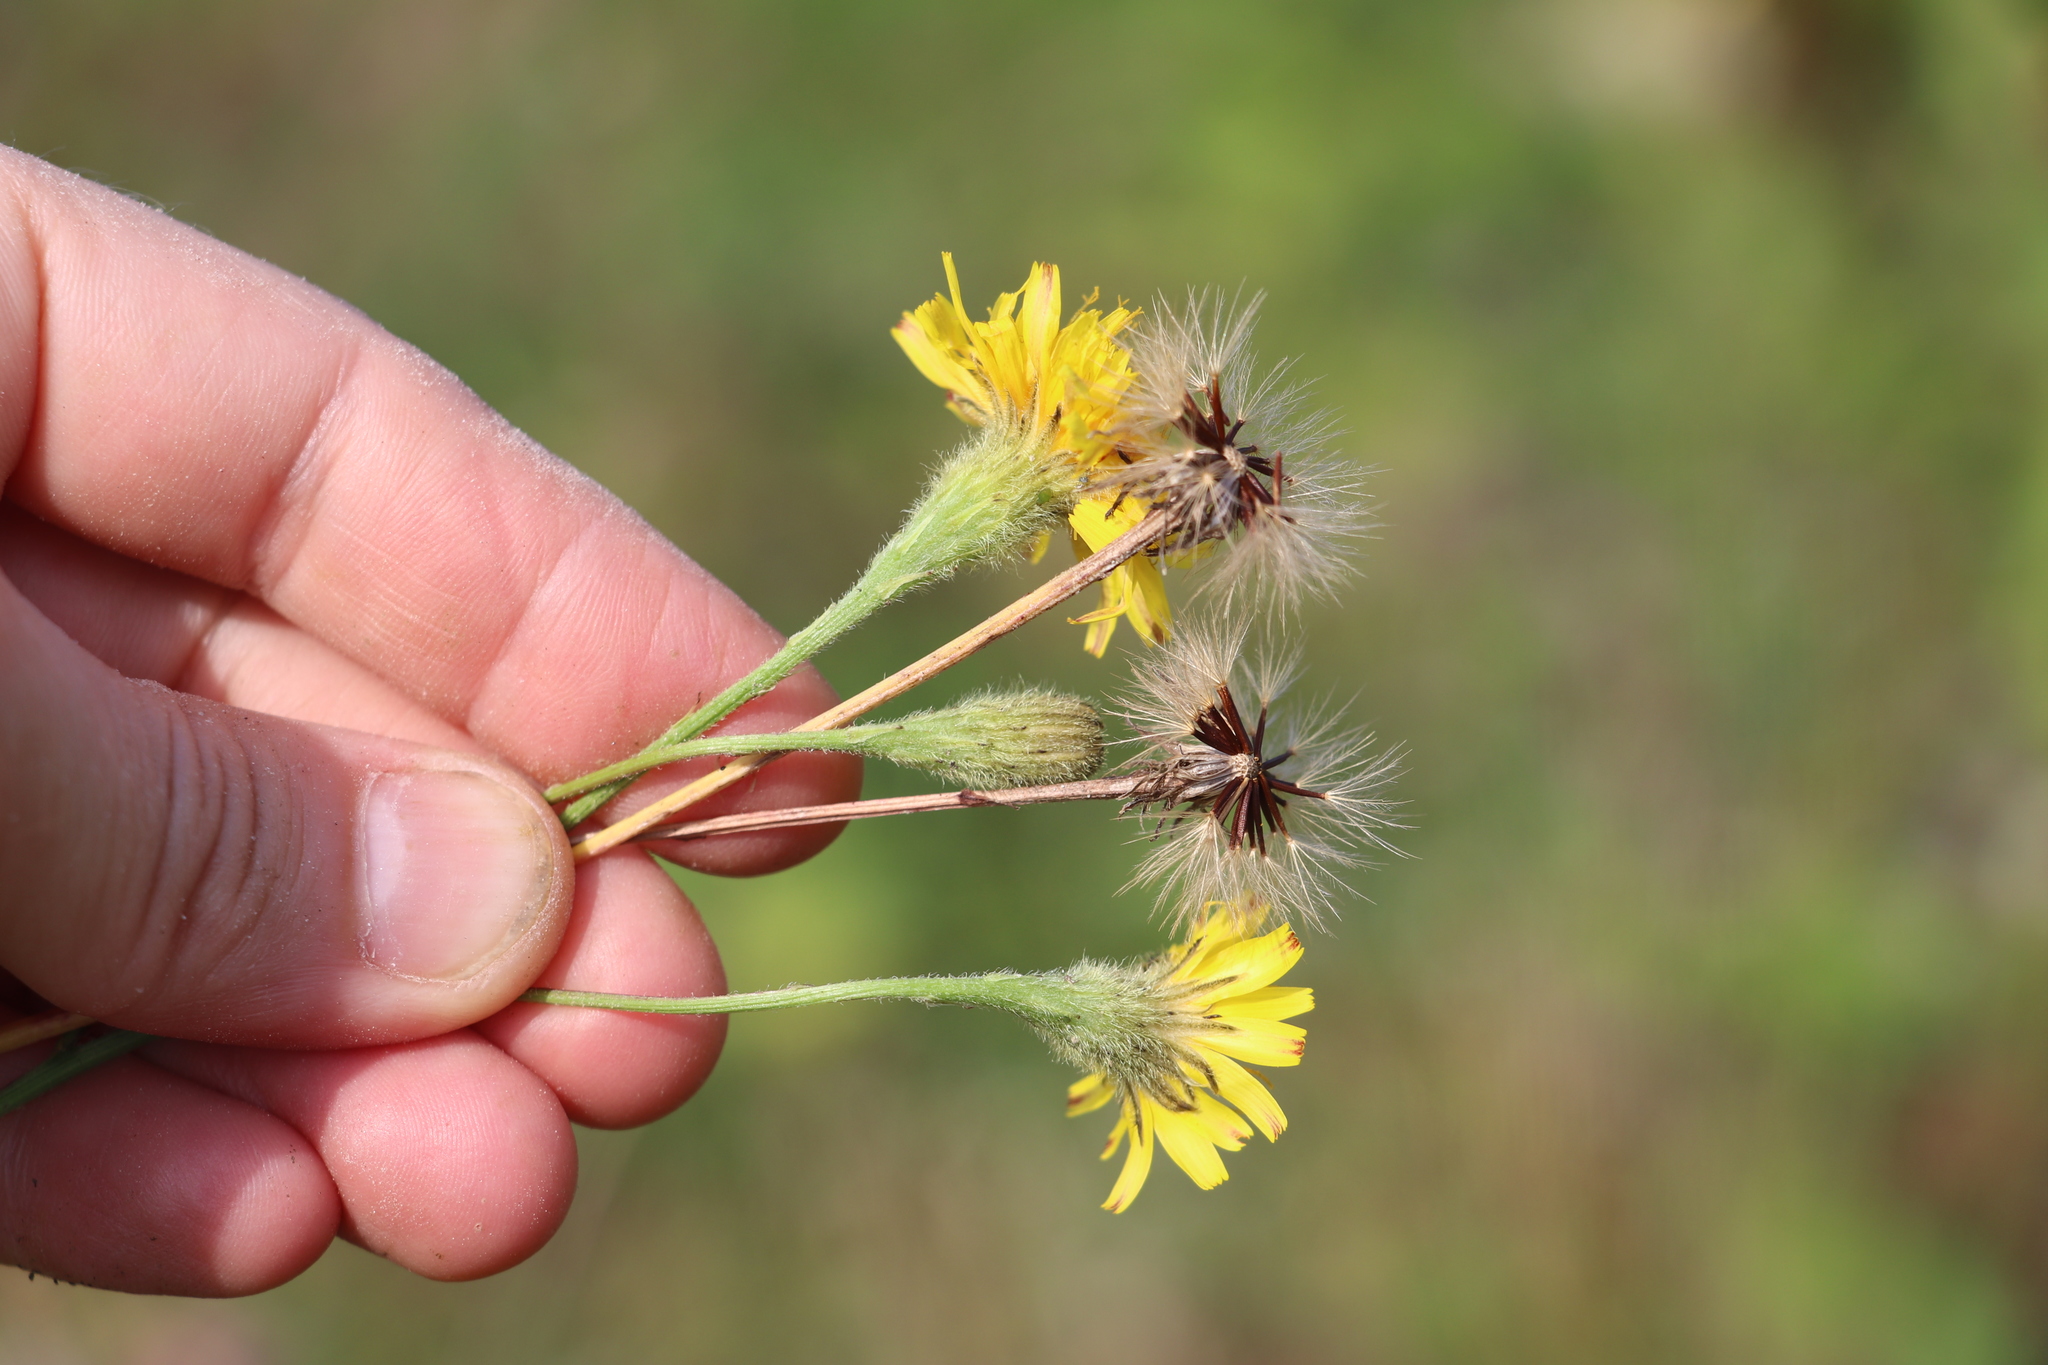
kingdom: Plantae
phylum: Tracheophyta
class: Magnoliopsida
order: Asterales
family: Asteraceae
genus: Scorzoneroides
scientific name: Scorzoneroides autumnalis
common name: Autumn hawkbit
